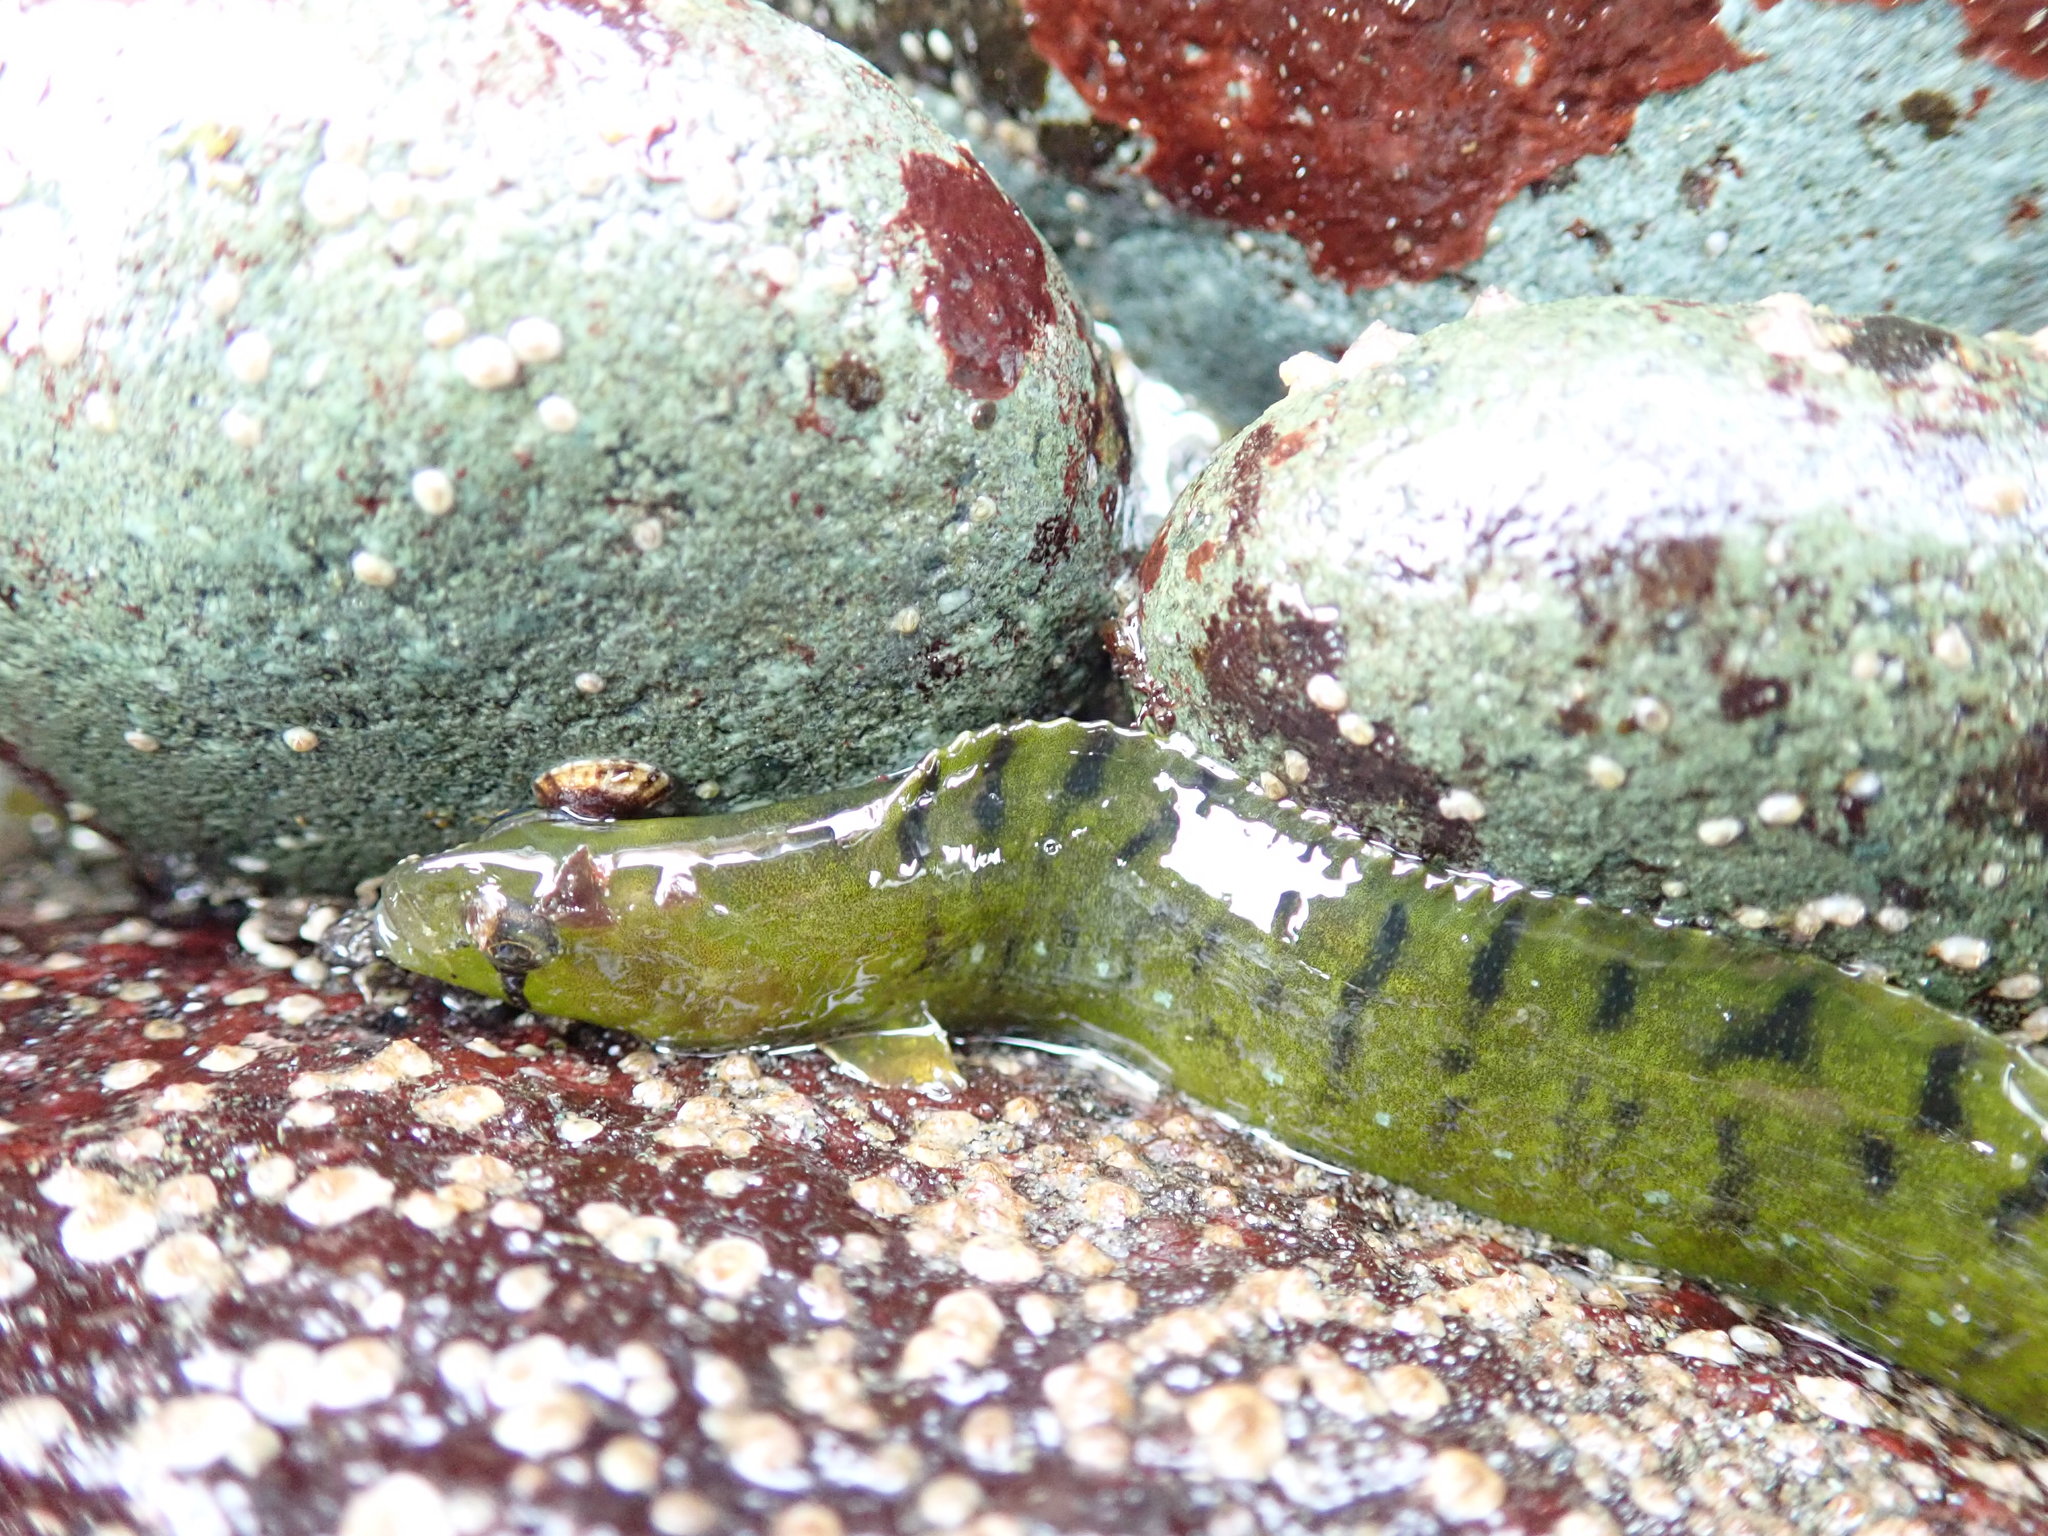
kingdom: Animalia
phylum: Chordata
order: Perciformes
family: Pholidae
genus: Apodichthys
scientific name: Apodichthys flavidus
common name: Penpoint gunnel
